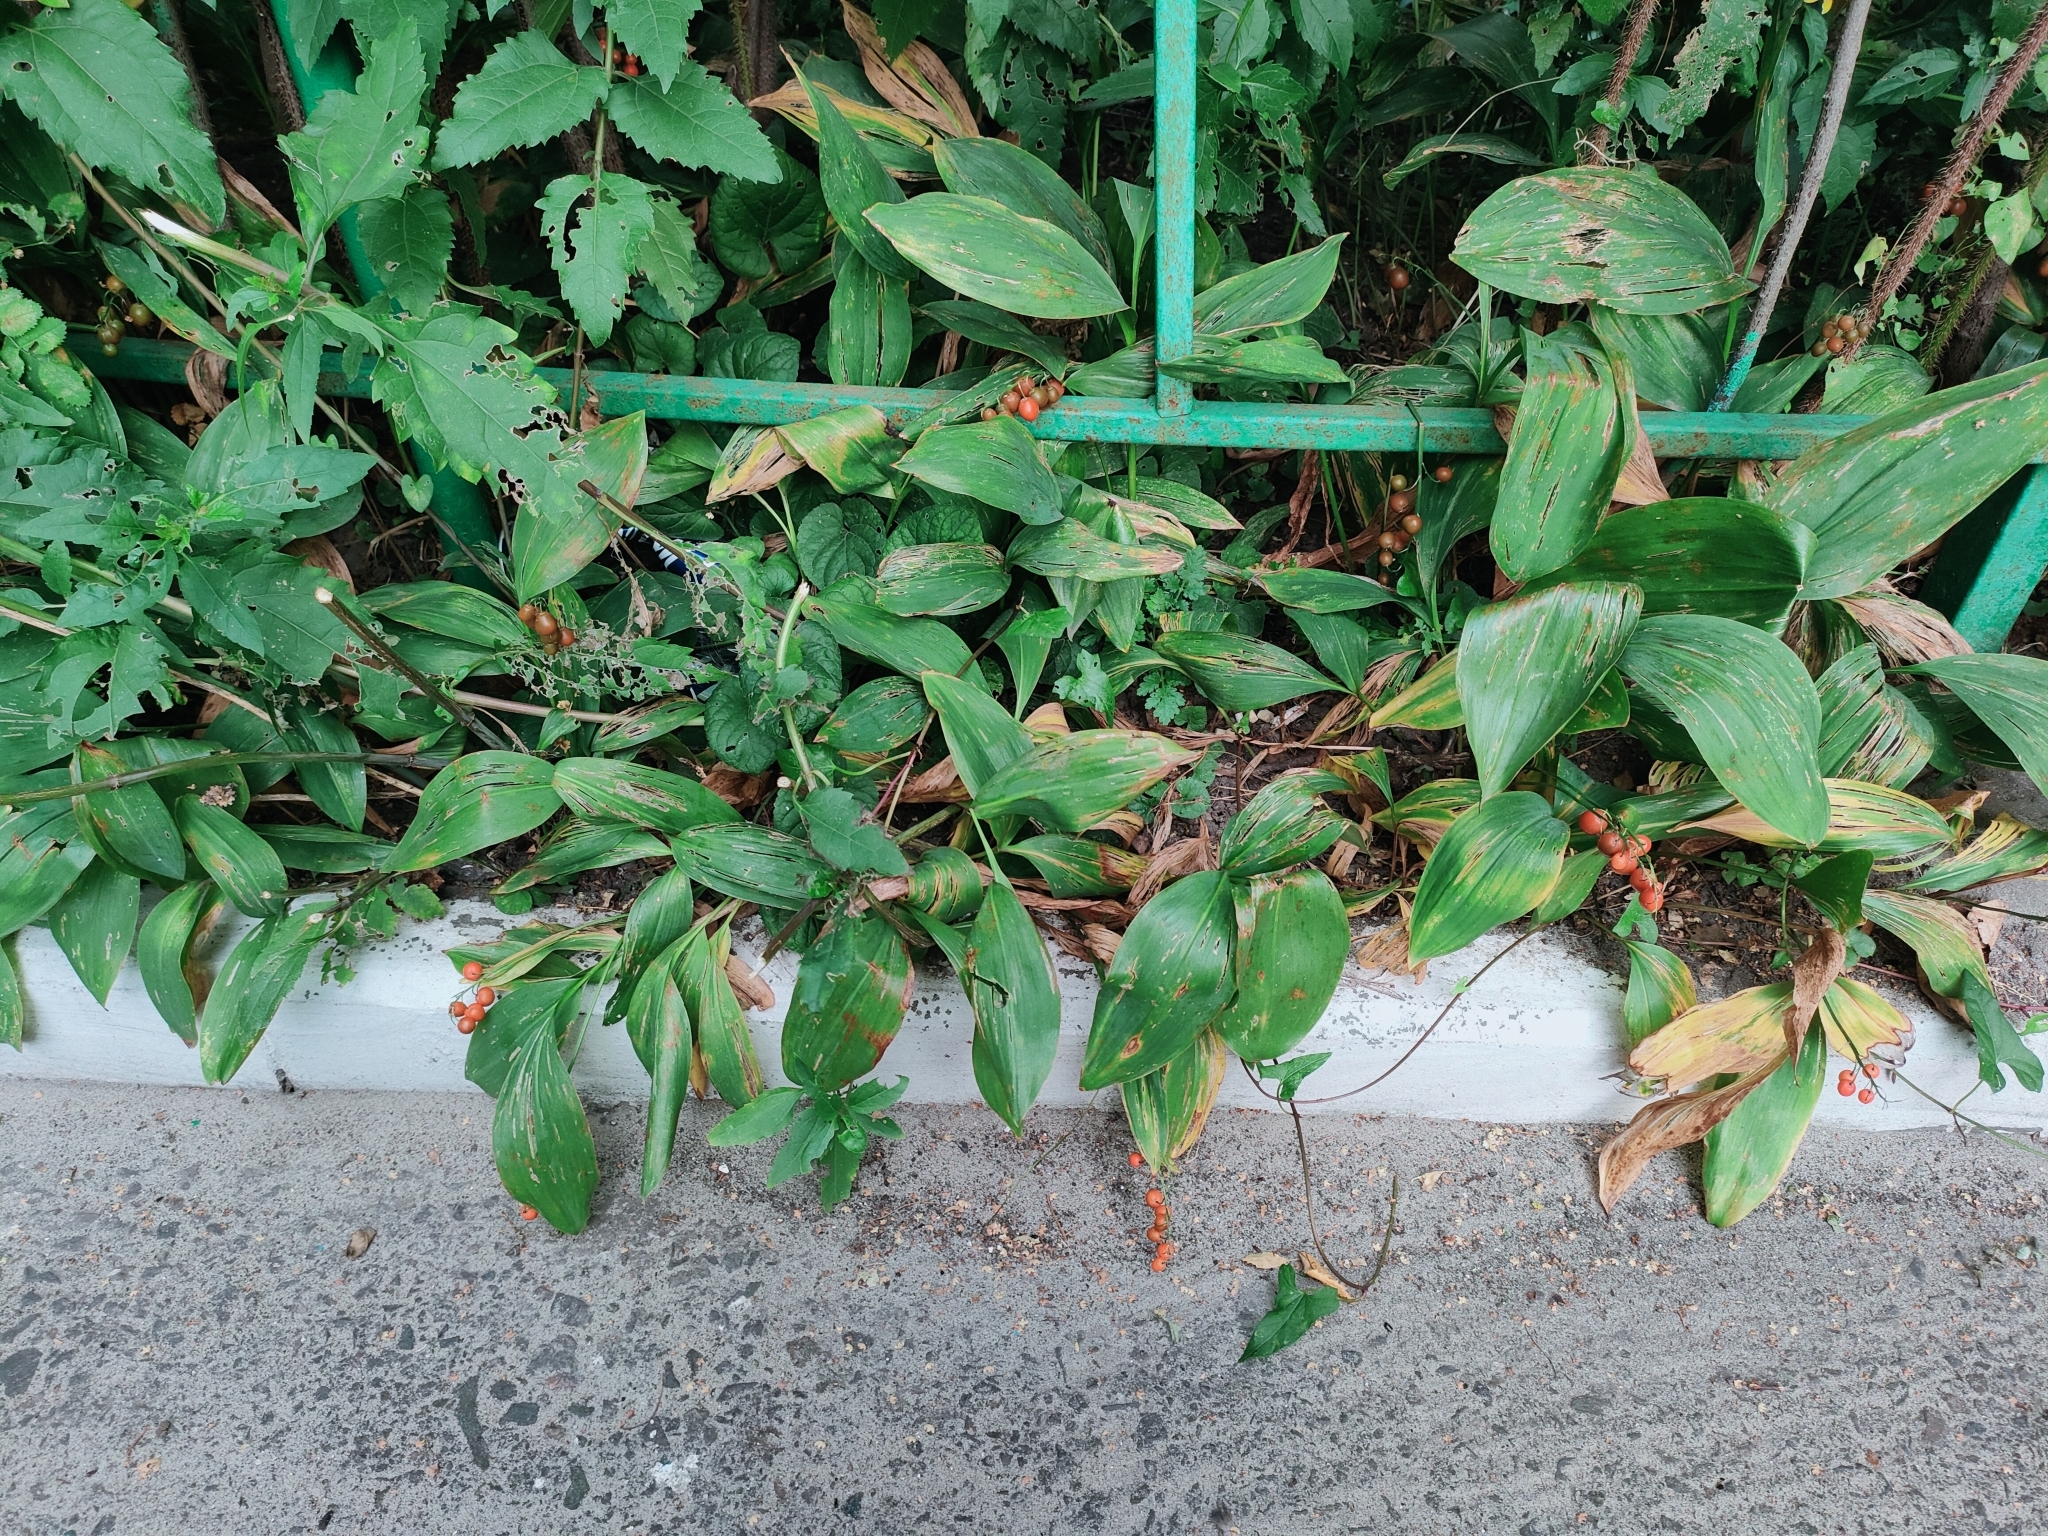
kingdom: Plantae
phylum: Tracheophyta
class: Liliopsida
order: Asparagales
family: Asparagaceae
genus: Convallaria
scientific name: Convallaria majalis
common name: Lily-of-the-valley
